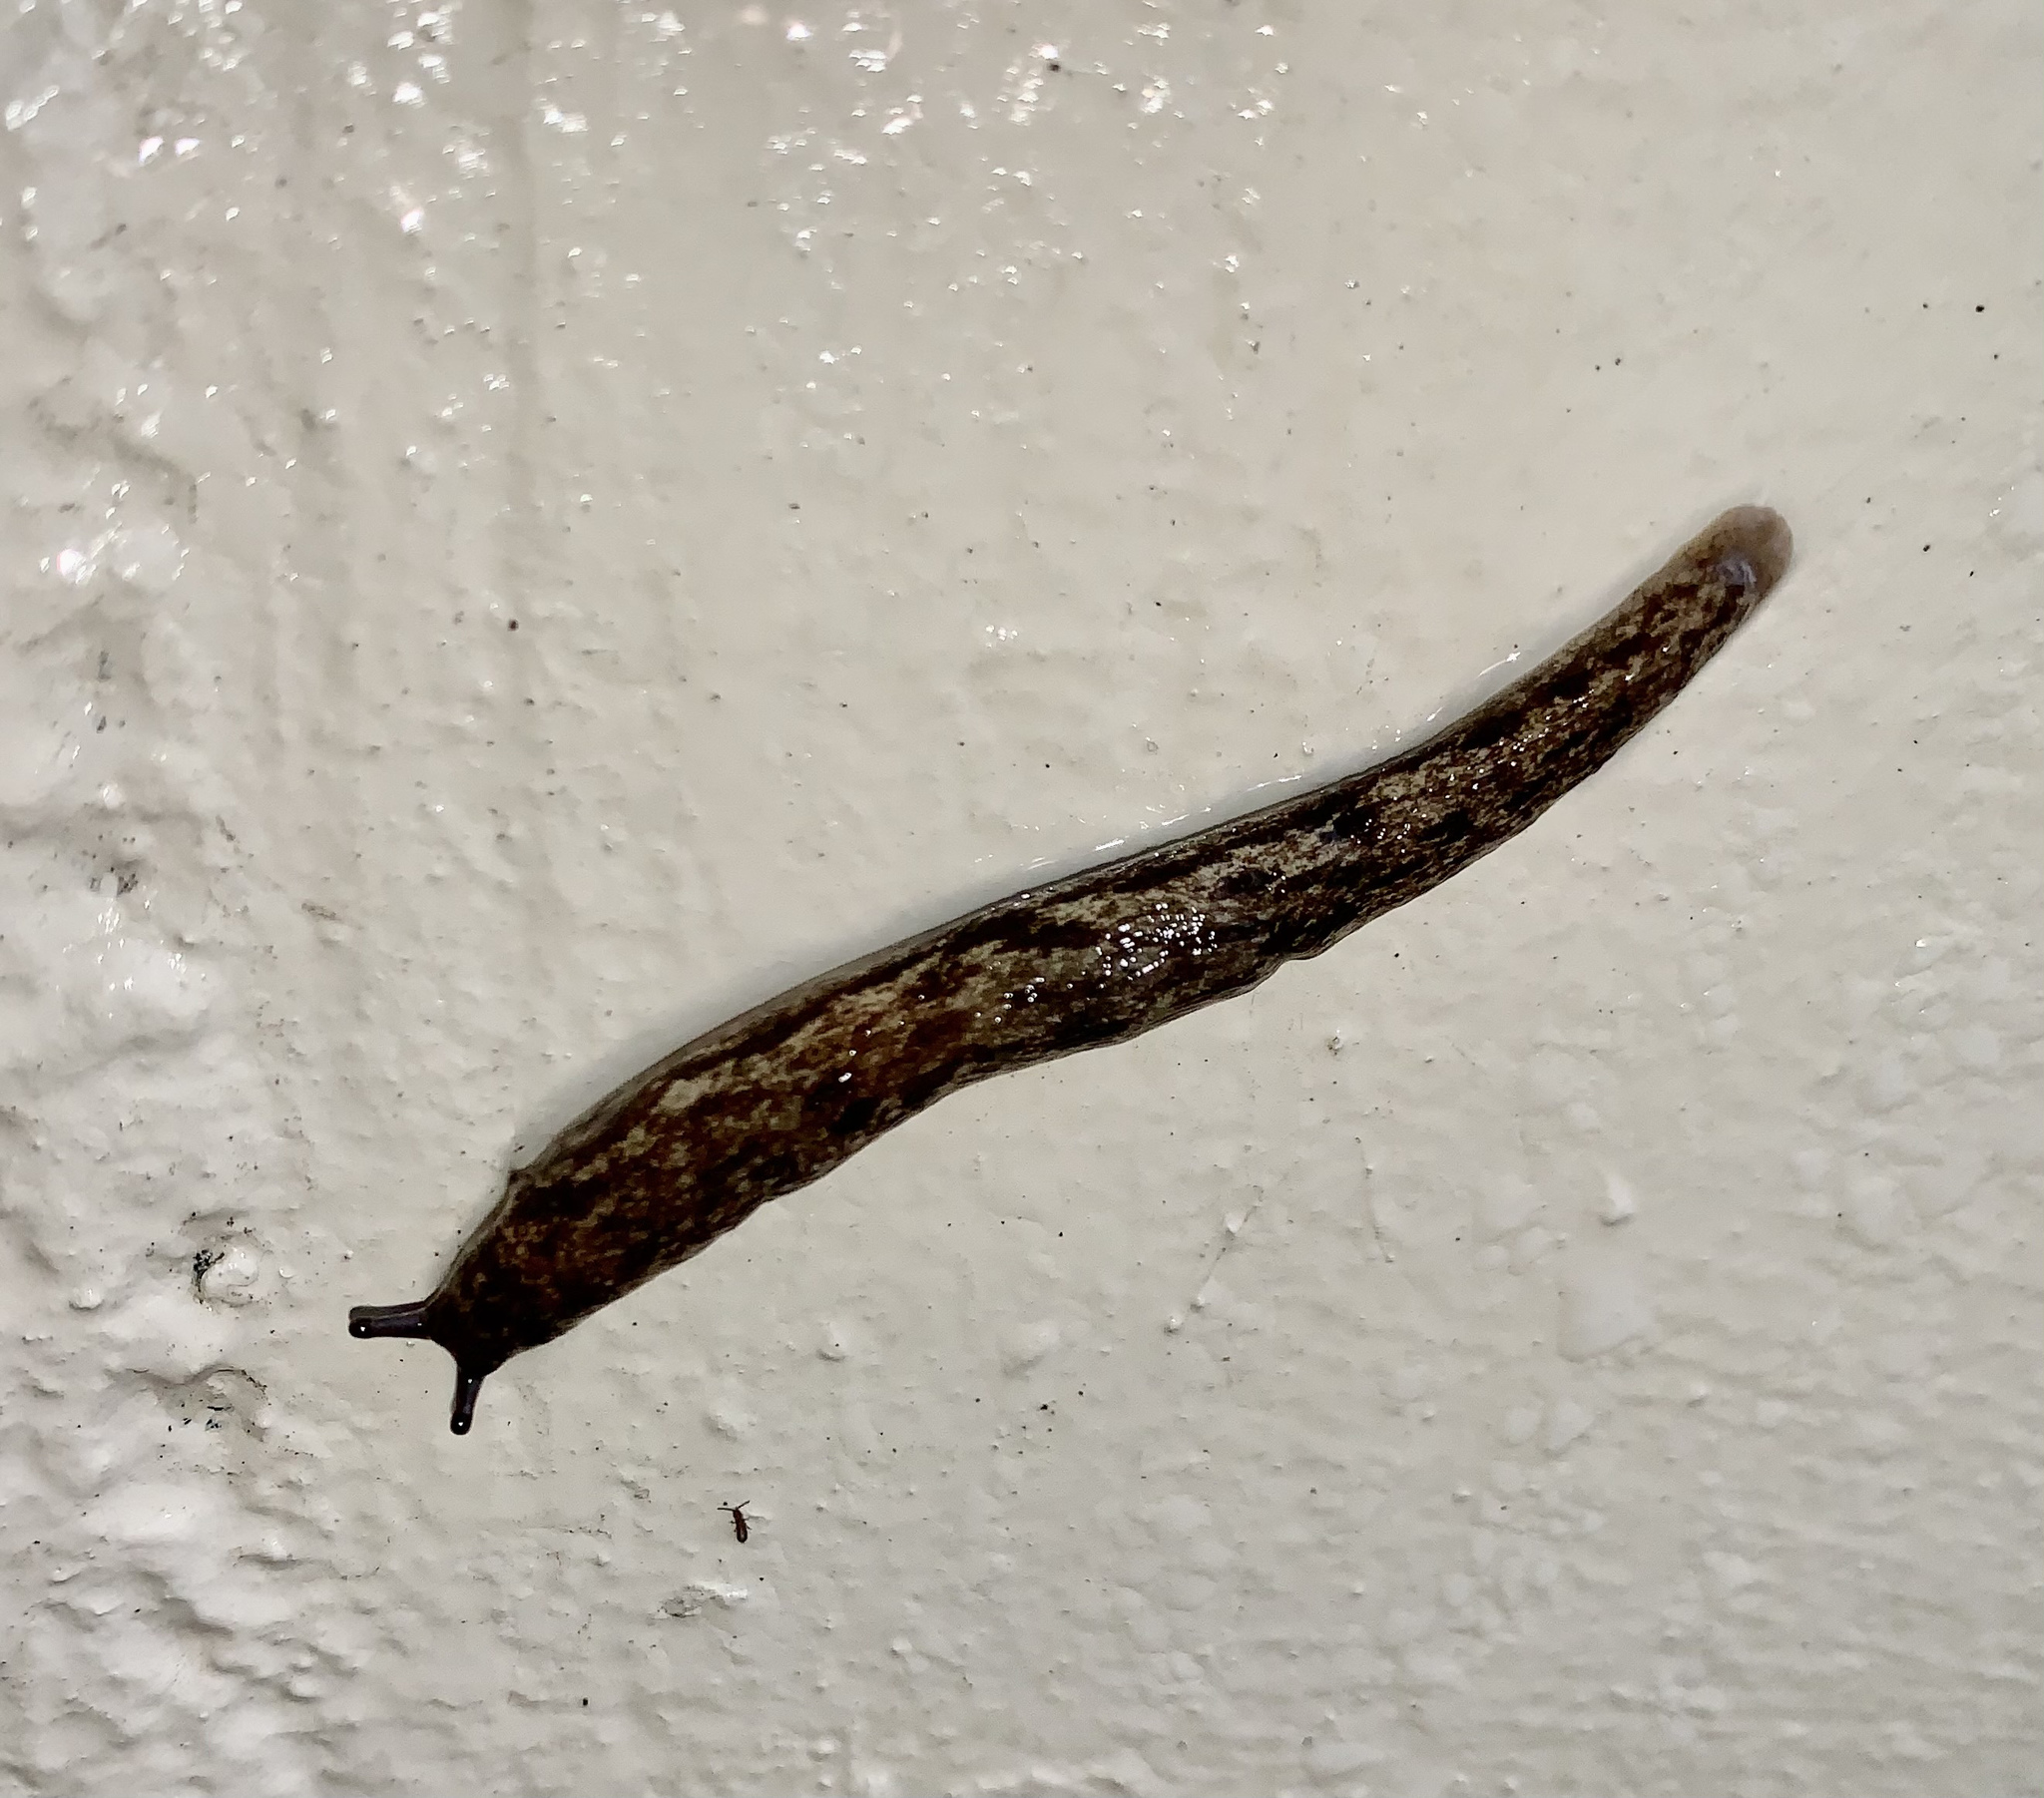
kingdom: Animalia
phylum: Mollusca
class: Gastropoda
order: Stylommatophora
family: Philomycidae
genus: Megapallifera
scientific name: Megapallifera mutabilis
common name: Changeable mantleslug
